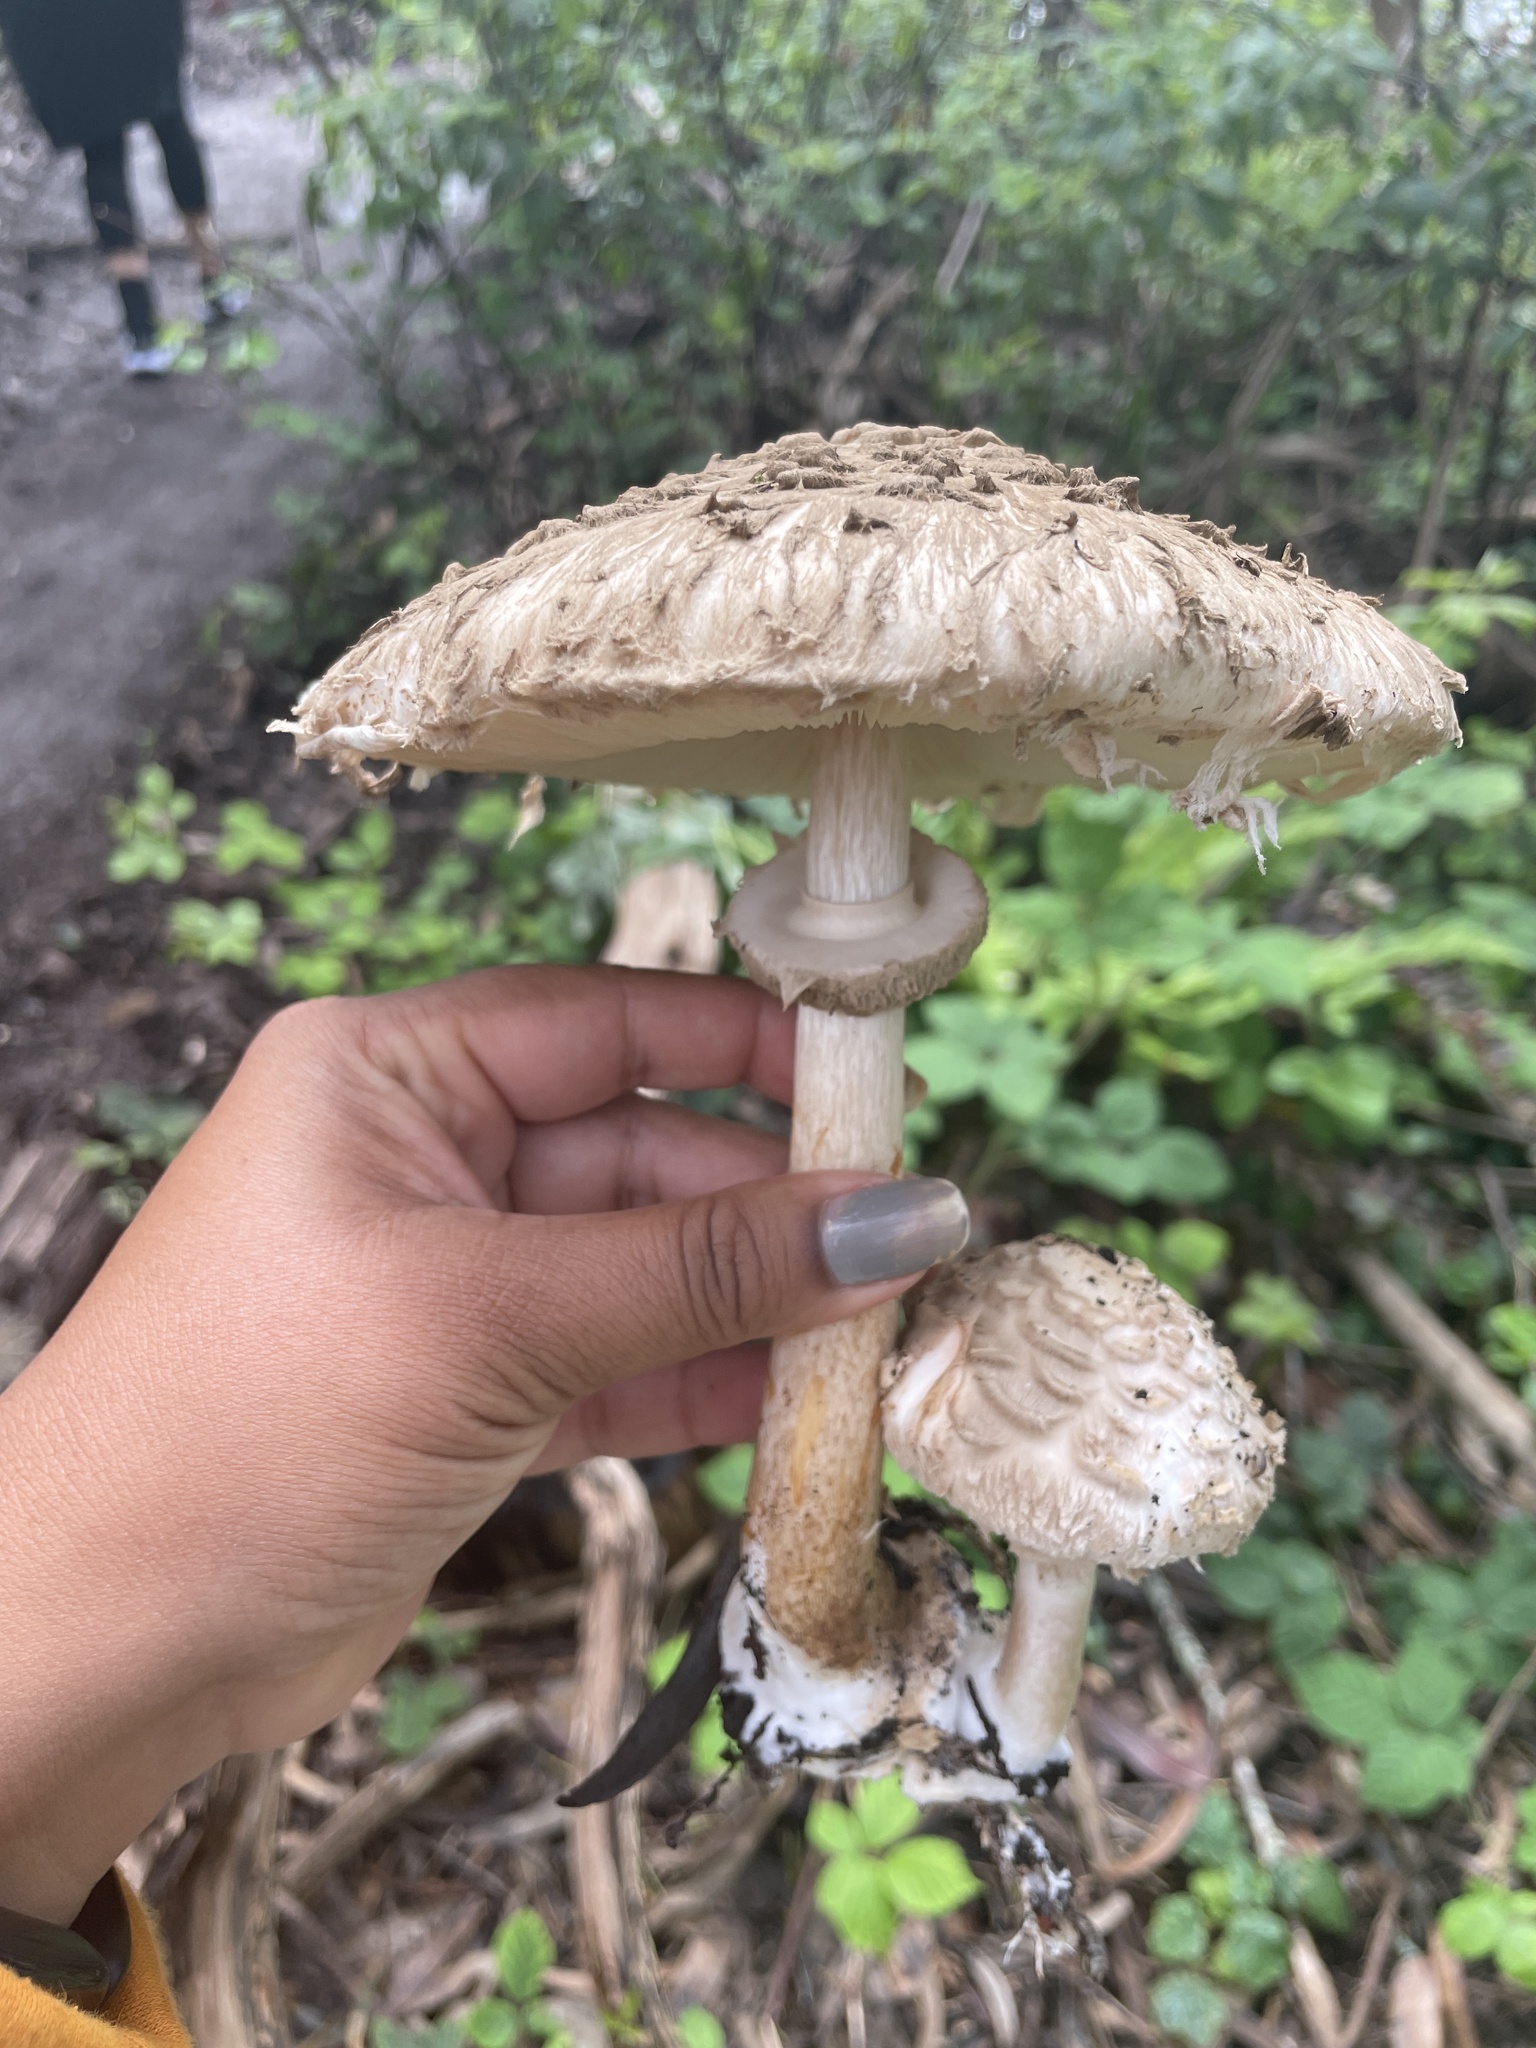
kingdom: Fungi
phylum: Basidiomycota
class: Agaricomycetes
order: Agaricales
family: Agaricaceae
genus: Chlorophyllum
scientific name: Chlorophyllum brunneum
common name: Brown parasol
